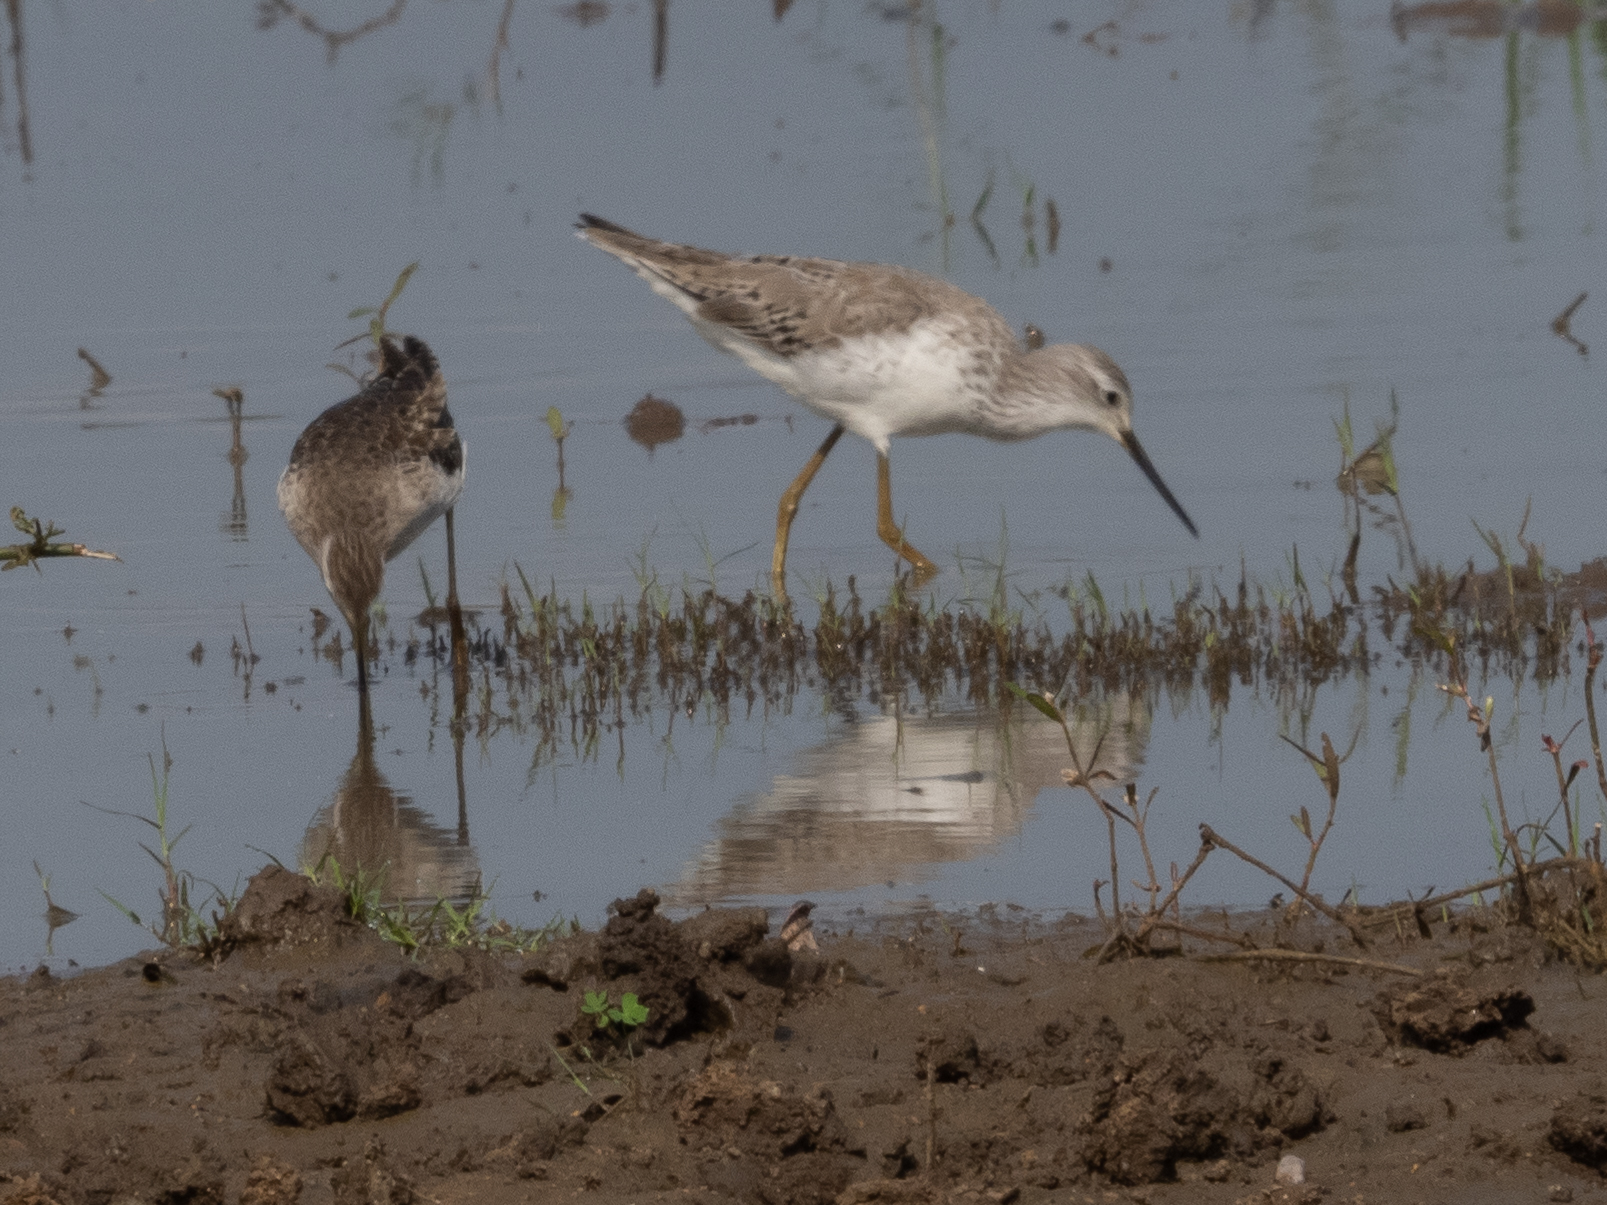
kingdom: Animalia
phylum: Chordata
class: Aves
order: Charadriiformes
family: Scolopacidae
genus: Tringa
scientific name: Tringa stagnatilis
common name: Marsh sandpiper
